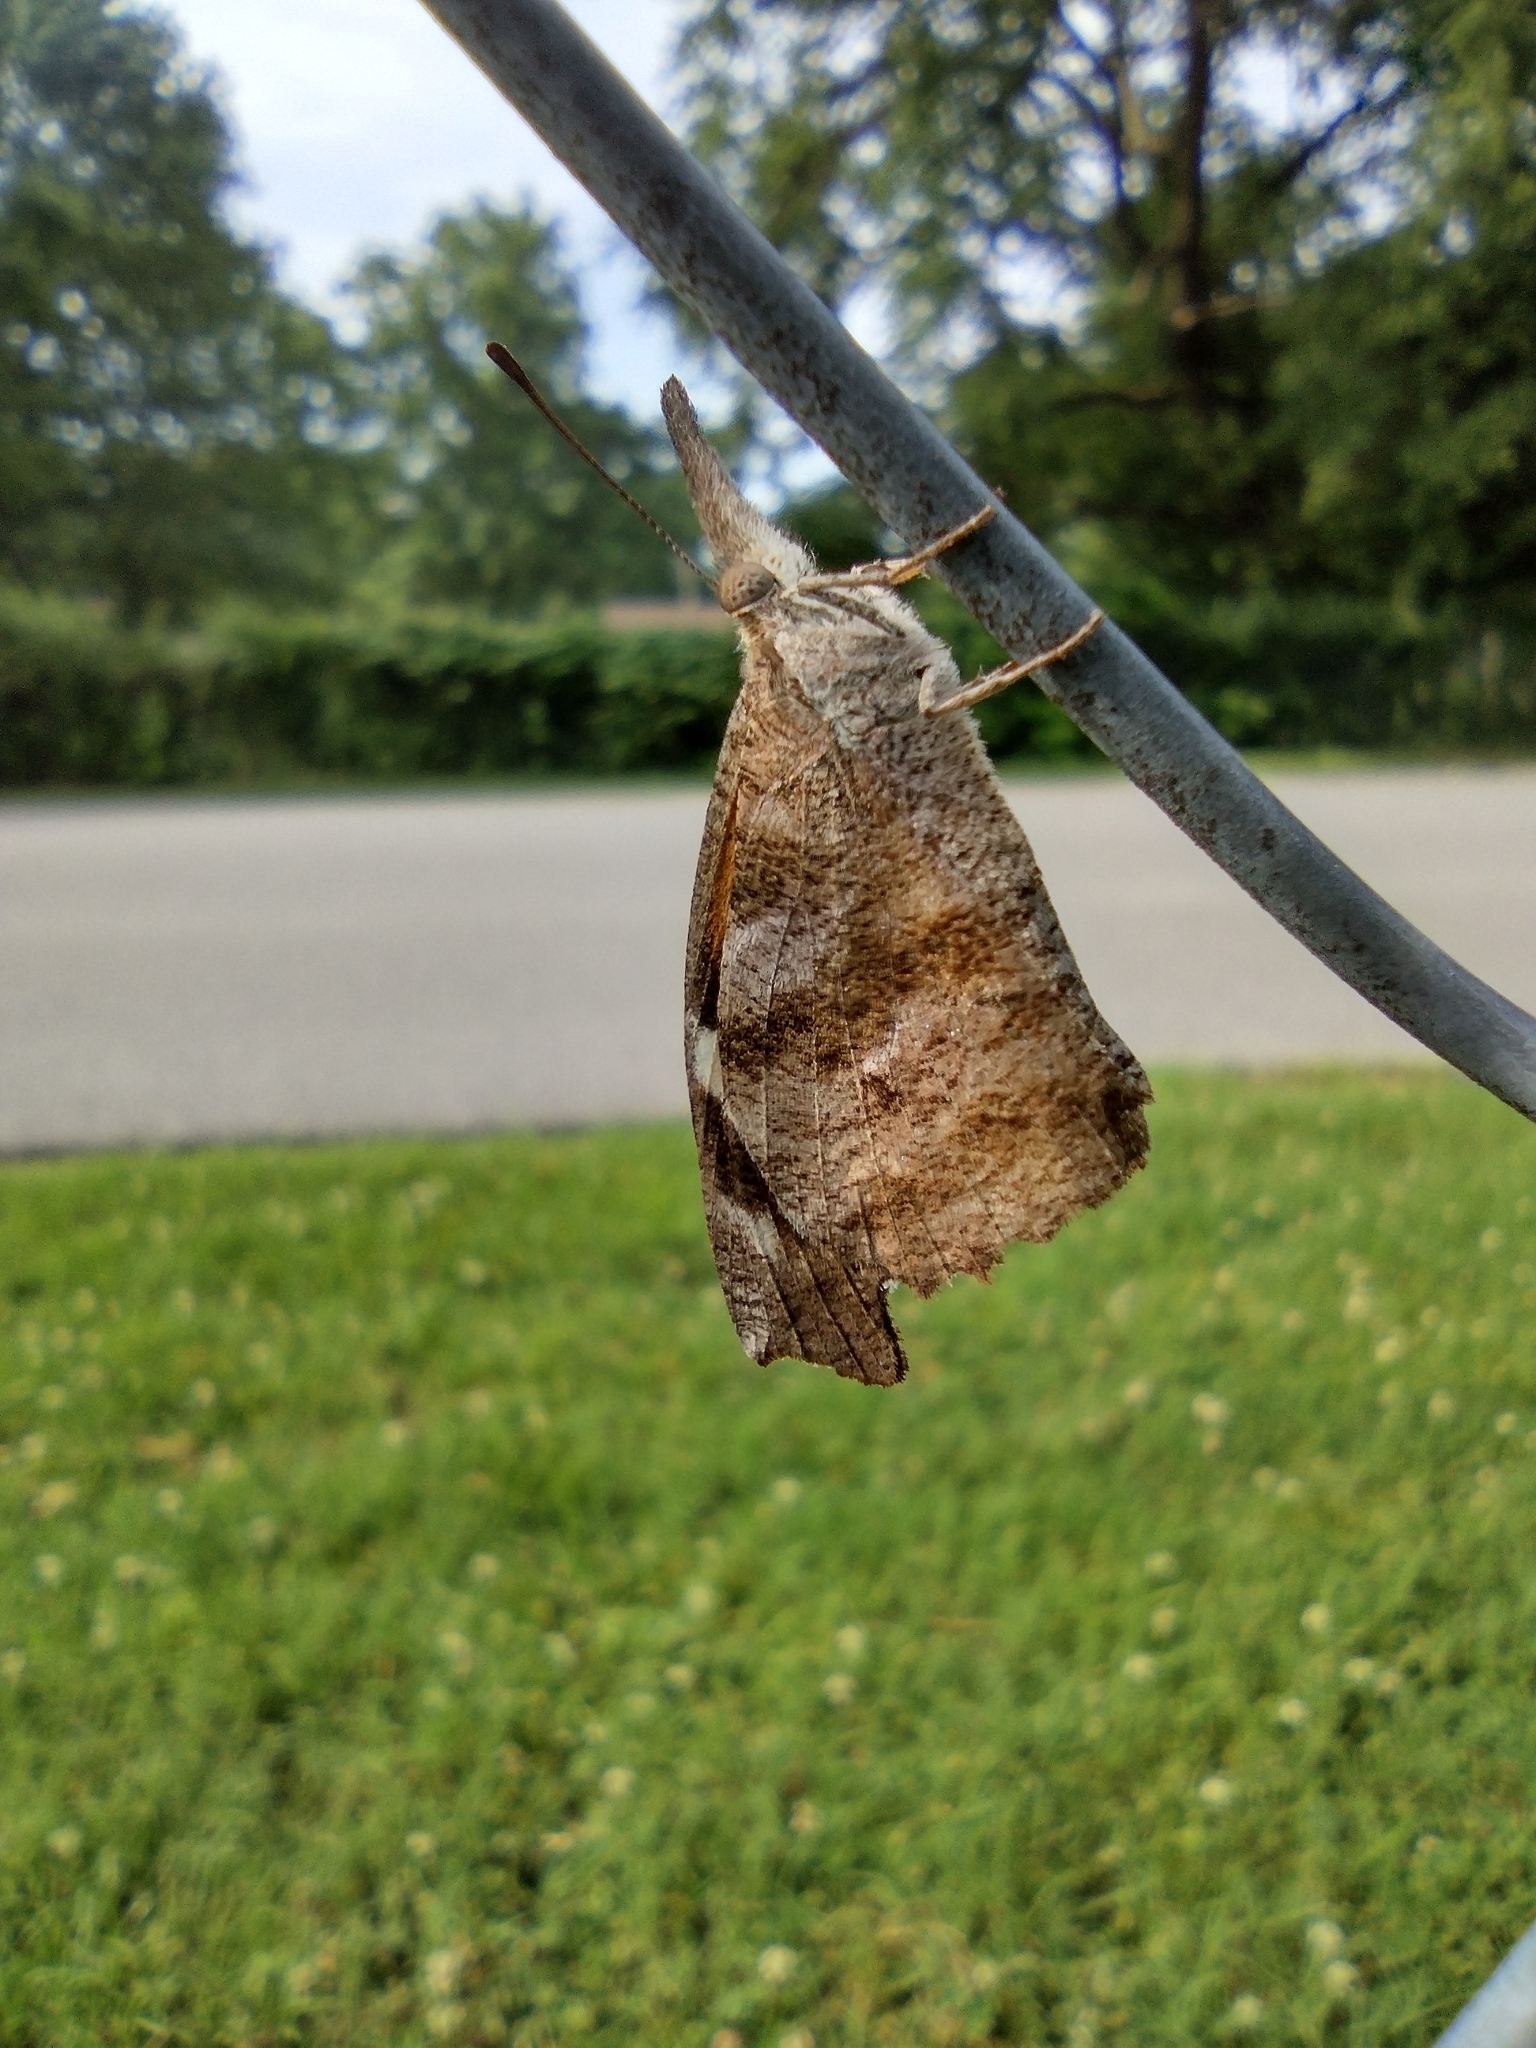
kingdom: Animalia
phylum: Arthropoda
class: Insecta
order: Lepidoptera
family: Nymphalidae
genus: Libytheana
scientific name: Libytheana carinenta
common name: American snout
